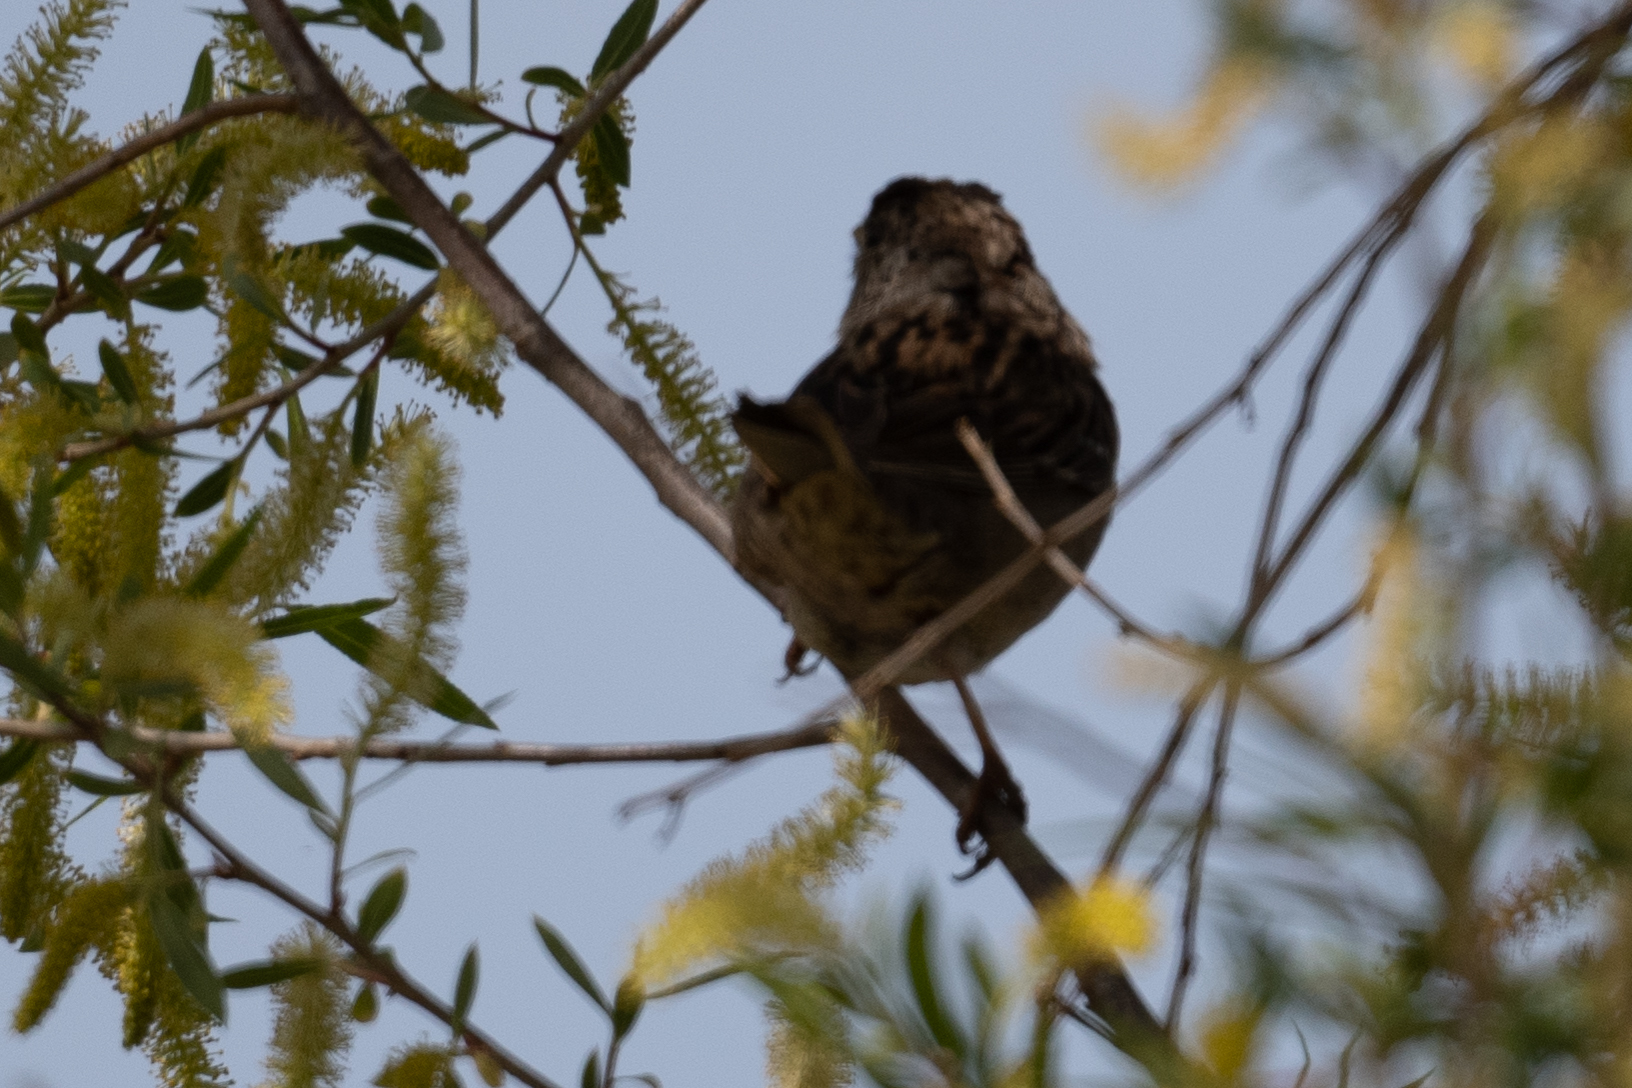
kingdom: Animalia
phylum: Chordata
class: Aves
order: Passeriformes
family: Passerellidae
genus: Zonotrichia
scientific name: Zonotrichia atricapilla
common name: Golden-crowned sparrow
